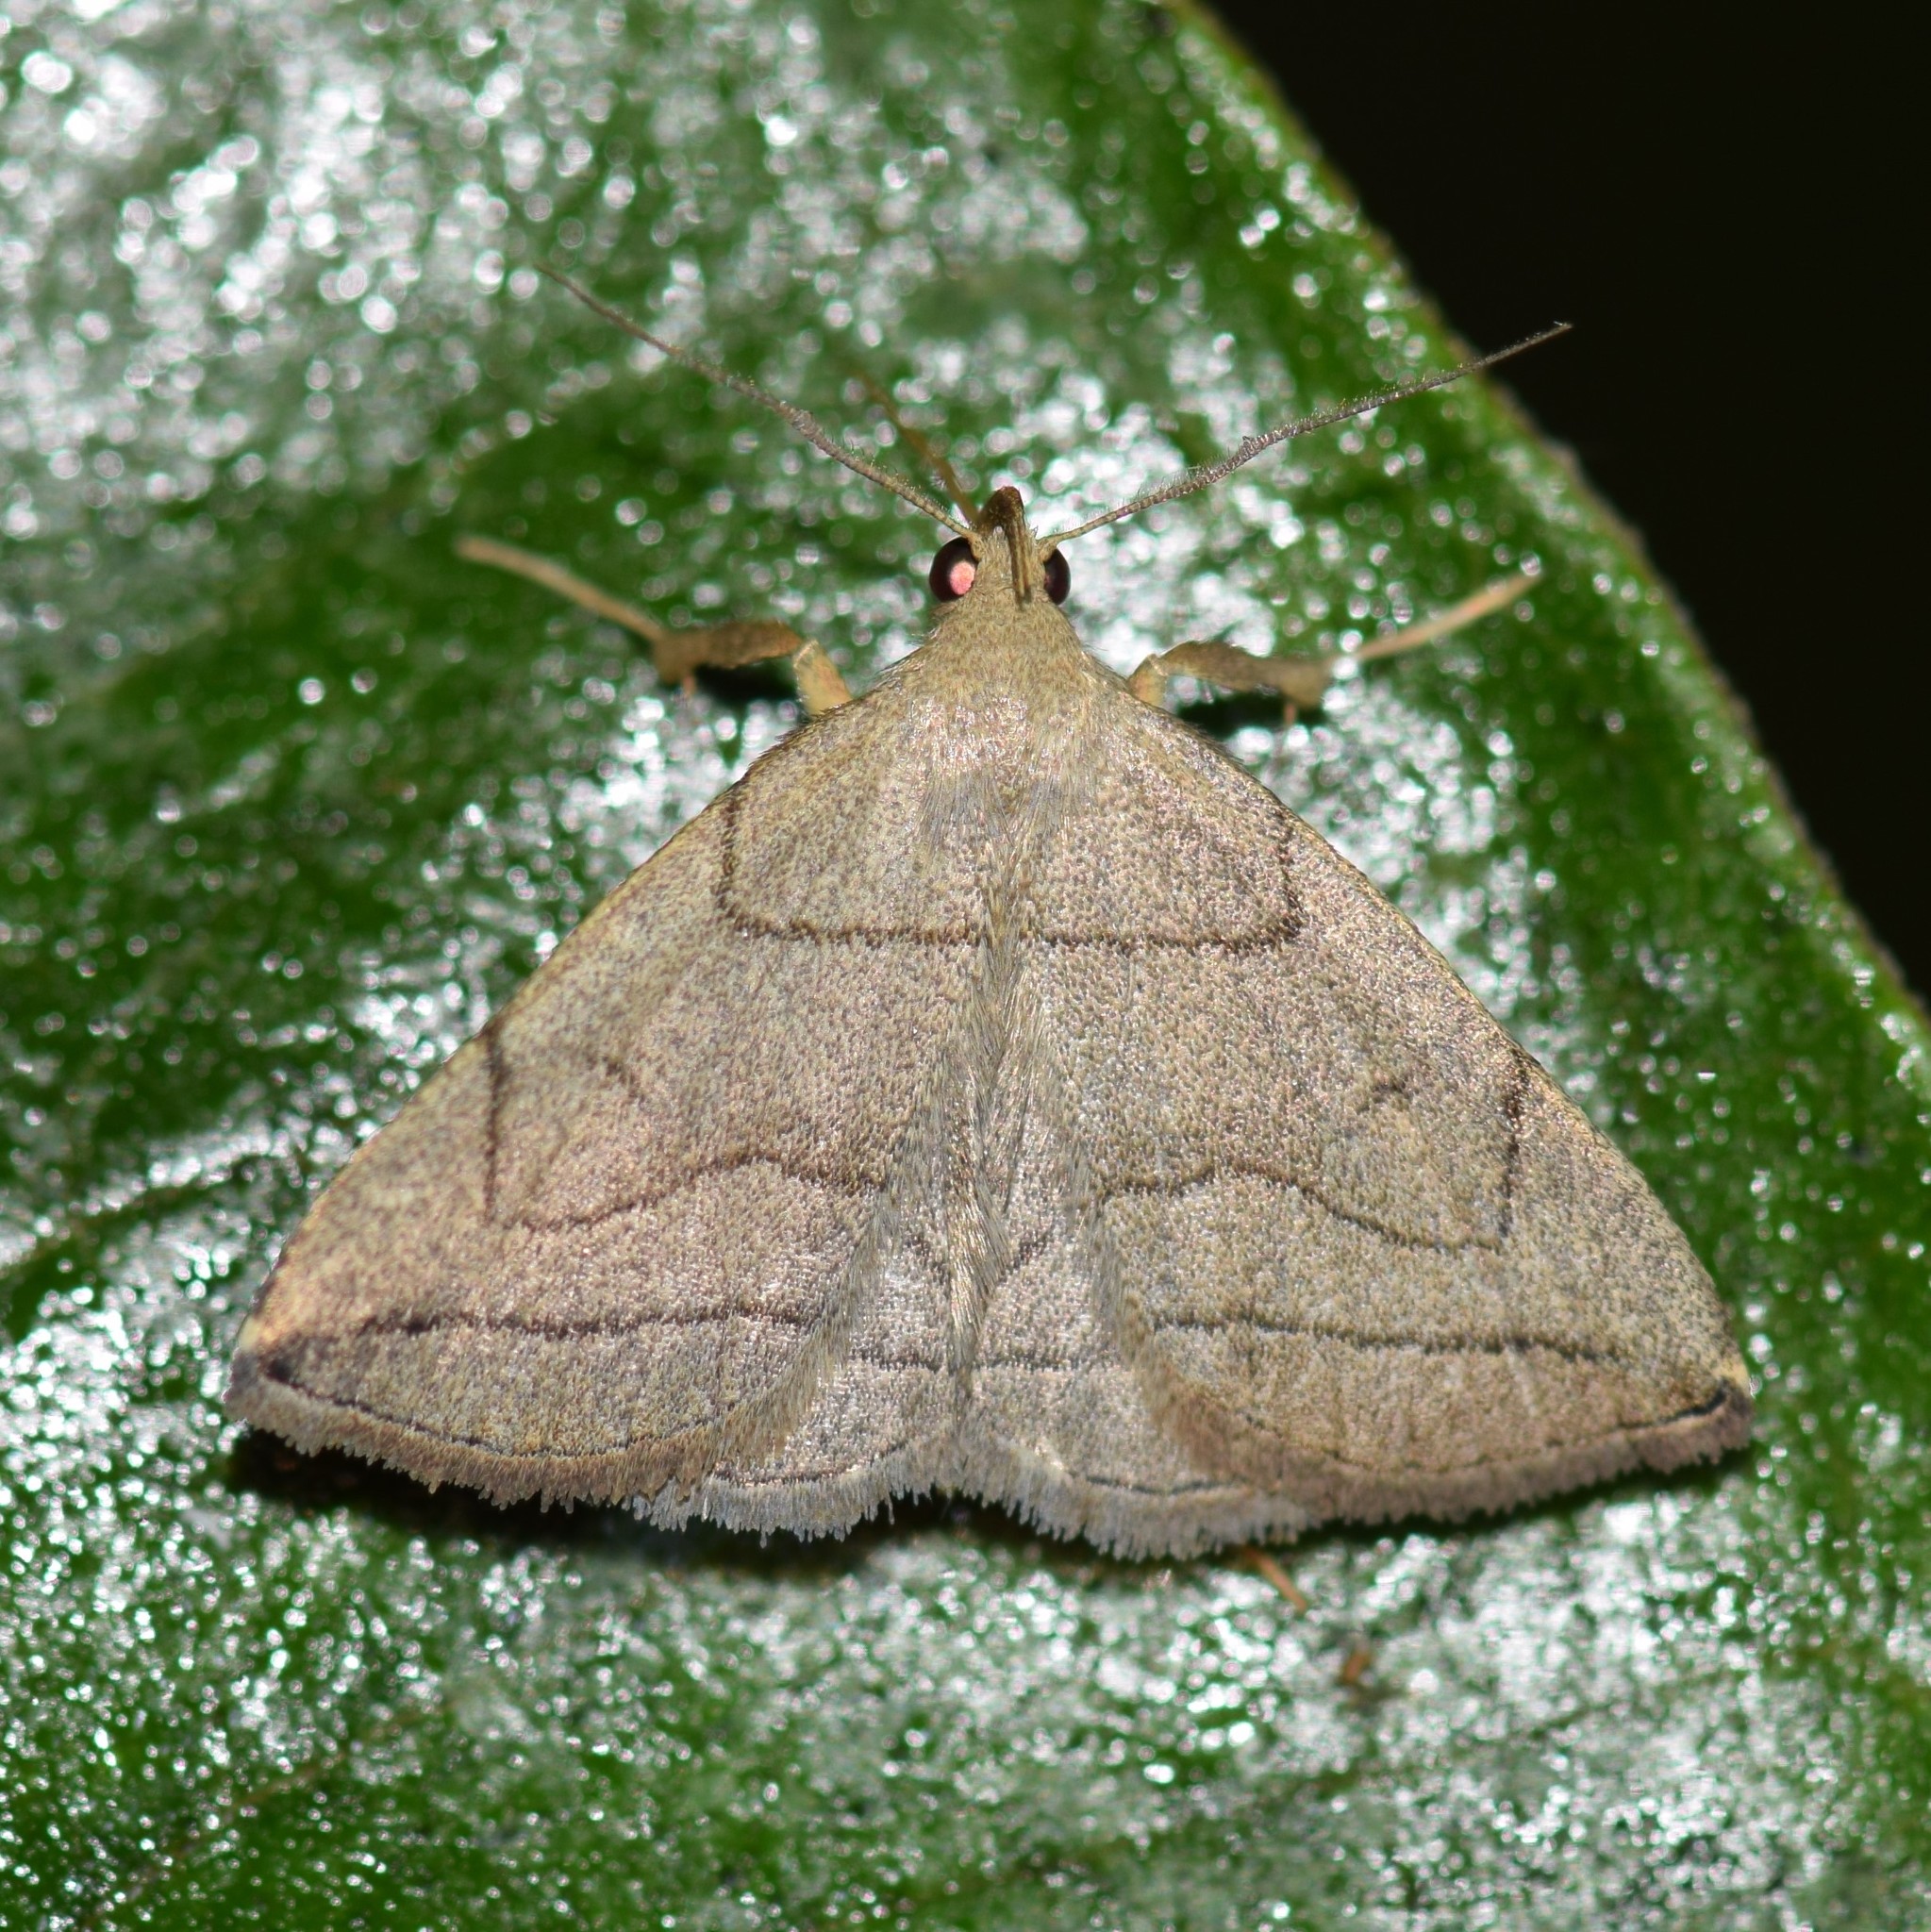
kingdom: Animalia
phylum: Arthropoda
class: Insecta
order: Lepidoptera
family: Erebidae
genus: Zanclognatha
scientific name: Zanclognatha pedipilalis
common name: Grayish fan-foot
